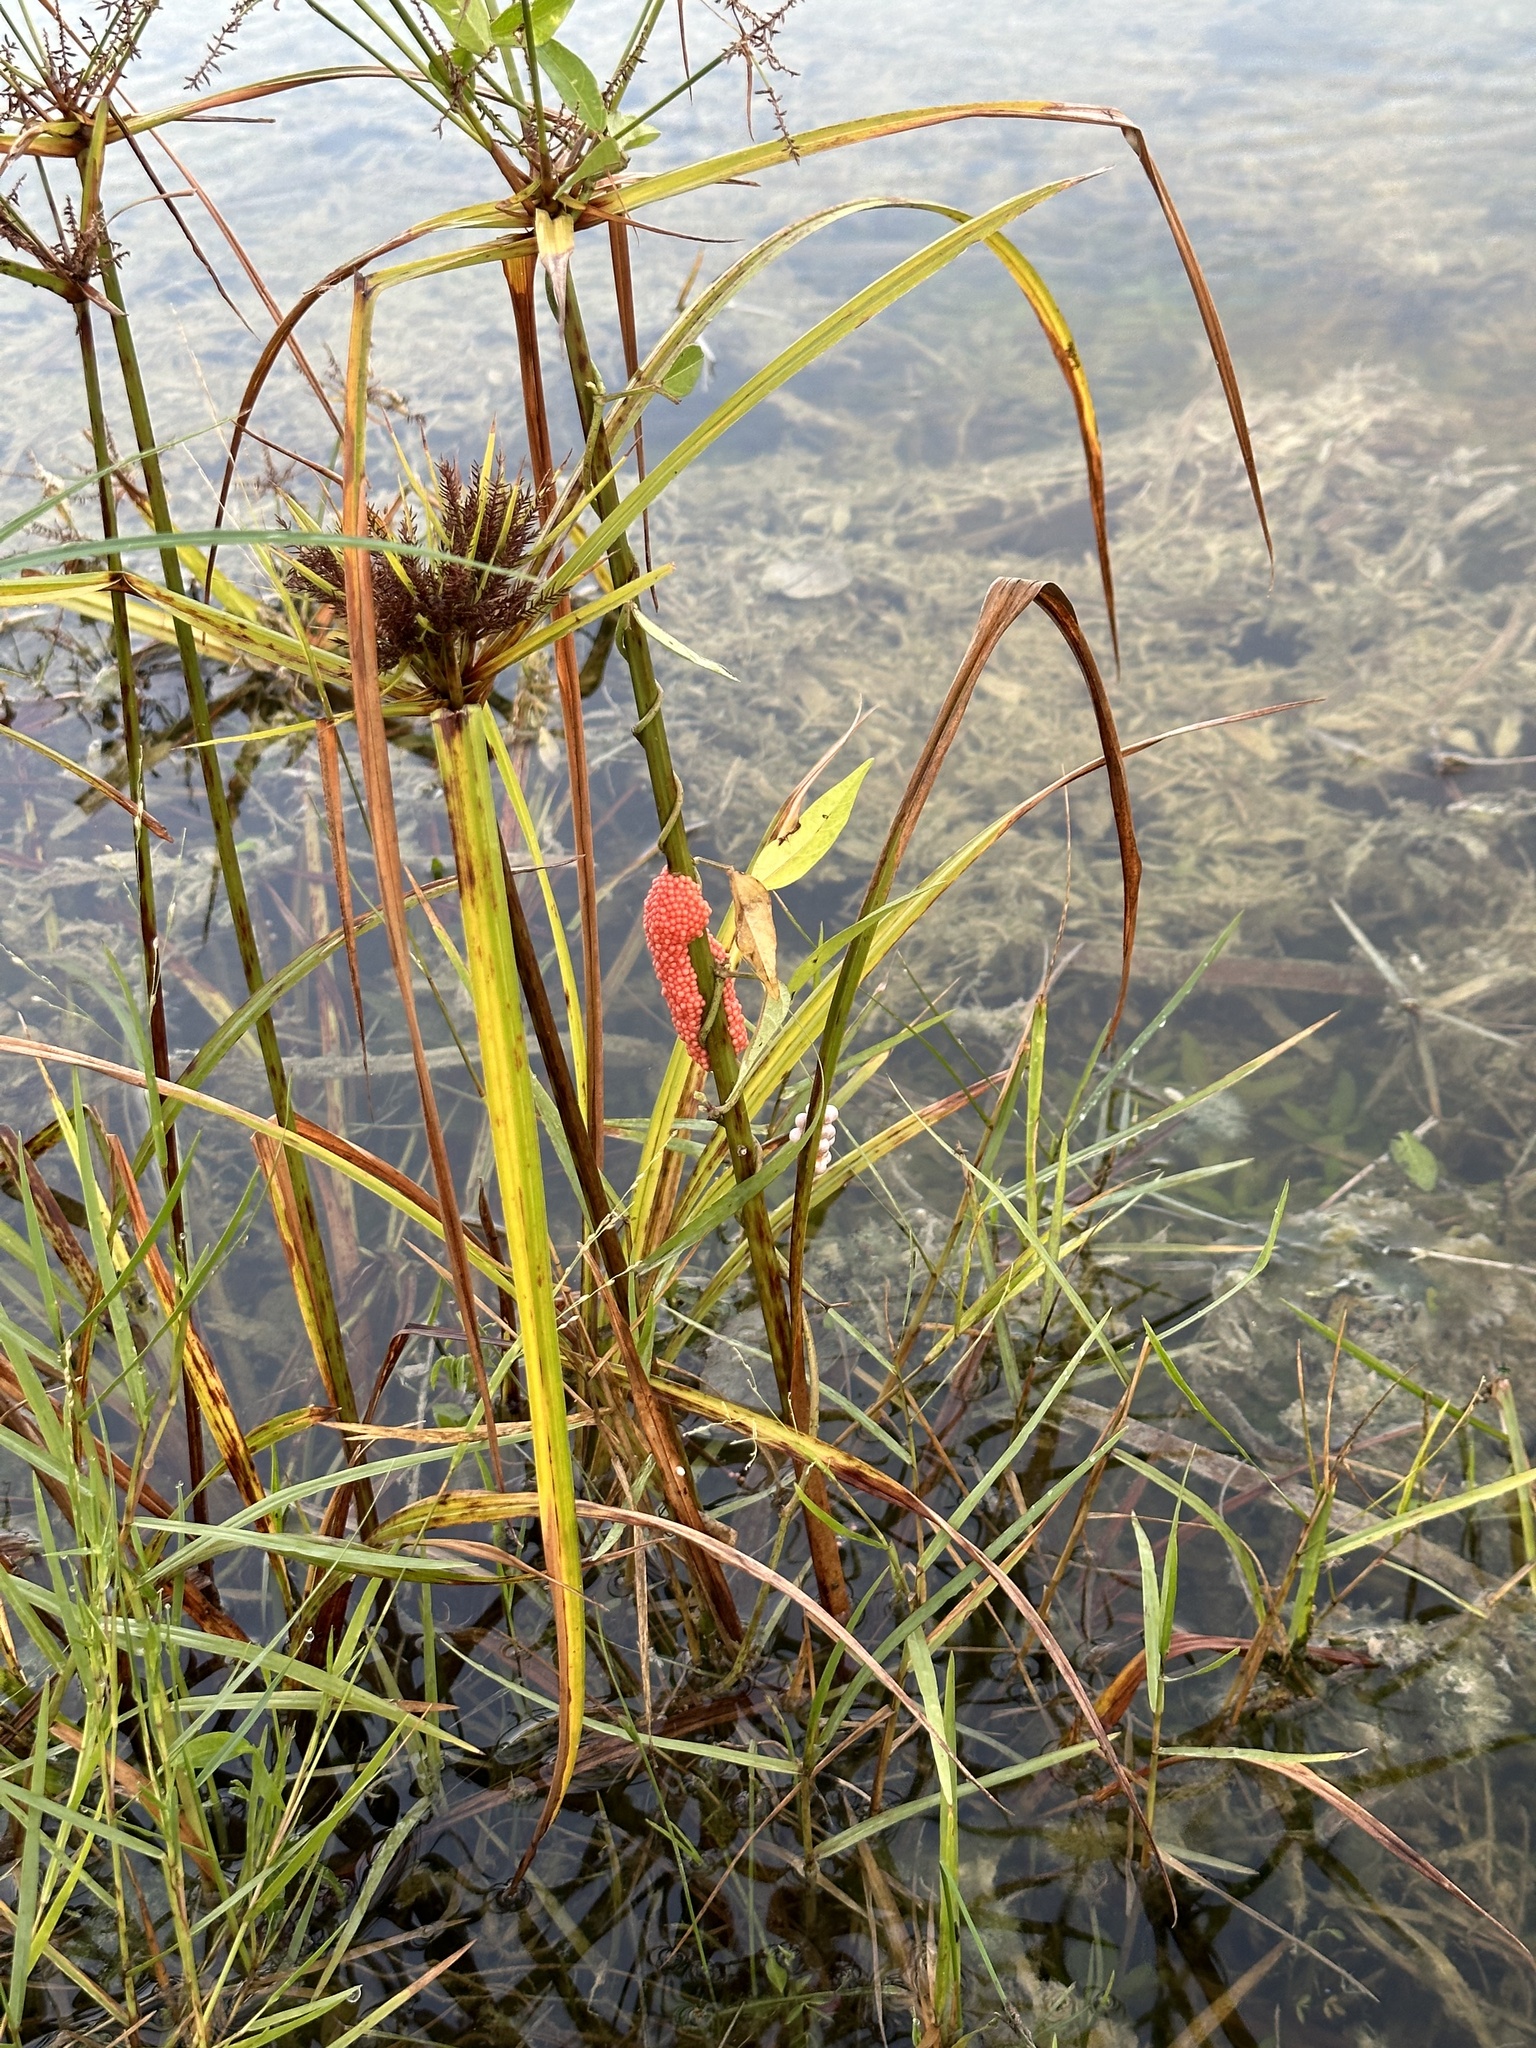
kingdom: Animalia
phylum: Mollusca
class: Gastropoda
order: Architaenioglossa
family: Ampullariidae
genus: Pomacea
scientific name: Pomacea maculata
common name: Giant applesnail
